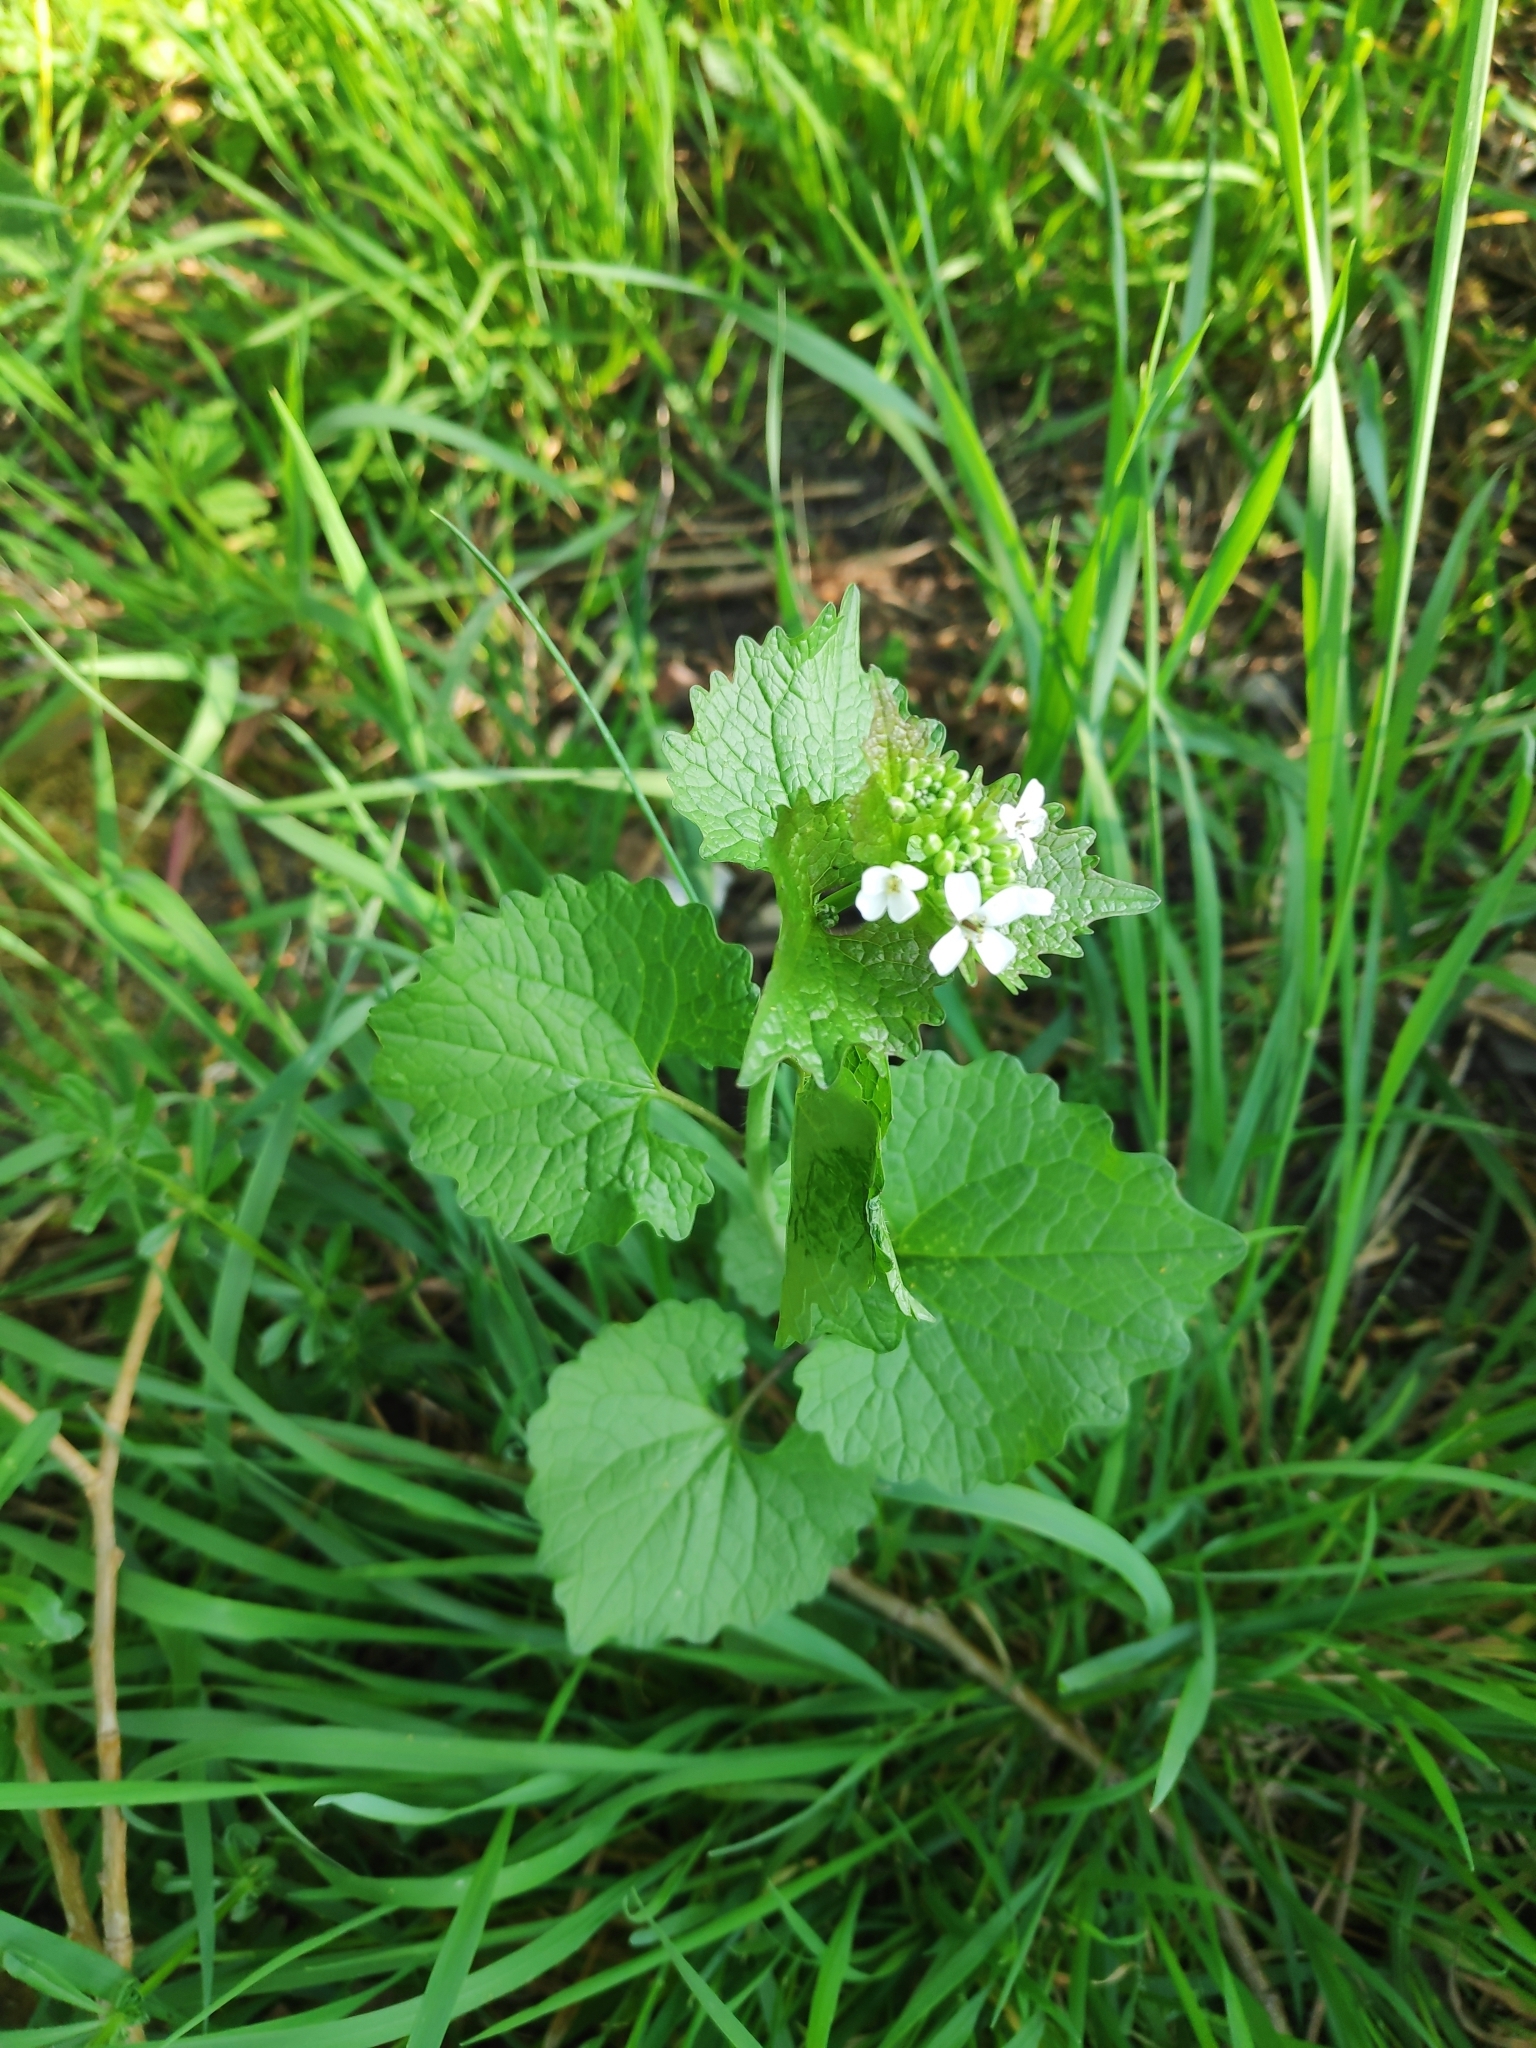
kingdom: Plantae
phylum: Tracheophyta
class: Magnoliopsida
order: Brassicales
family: Brassicaceae
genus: Alliaria
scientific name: Alliaria petiolata
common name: Garlic mustard
